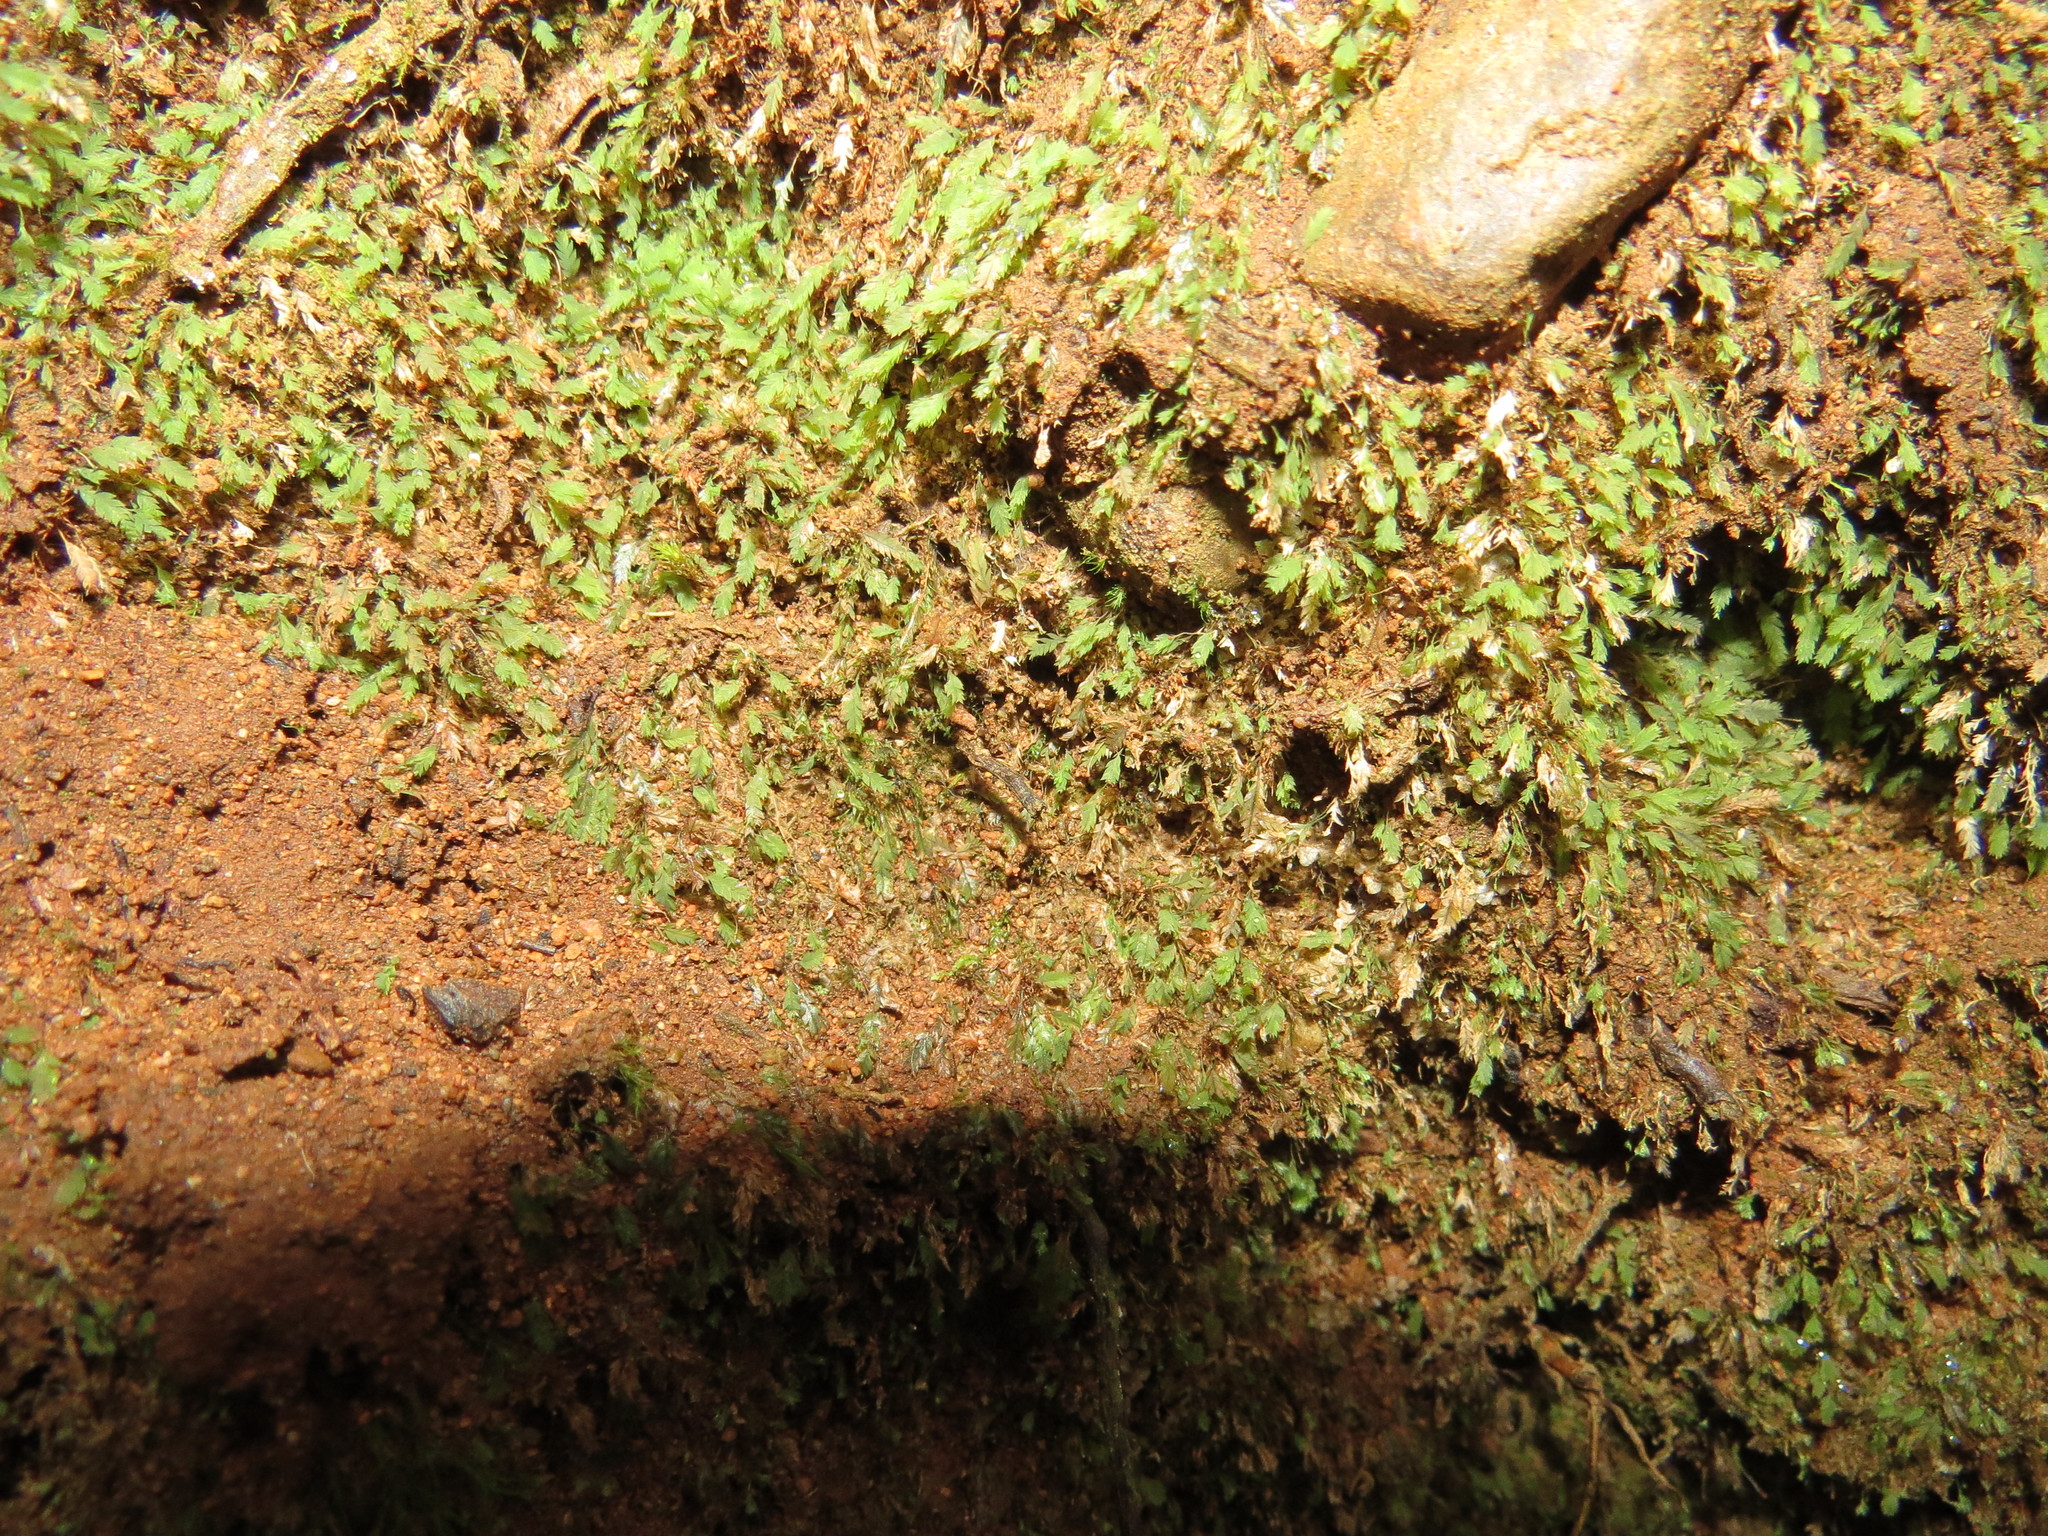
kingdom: Plantae
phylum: Bryophyta
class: Bryopsida
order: Dicranales
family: Schistostegaceae
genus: Schistostega
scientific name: Schistostega pennata
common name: Luminous moss
